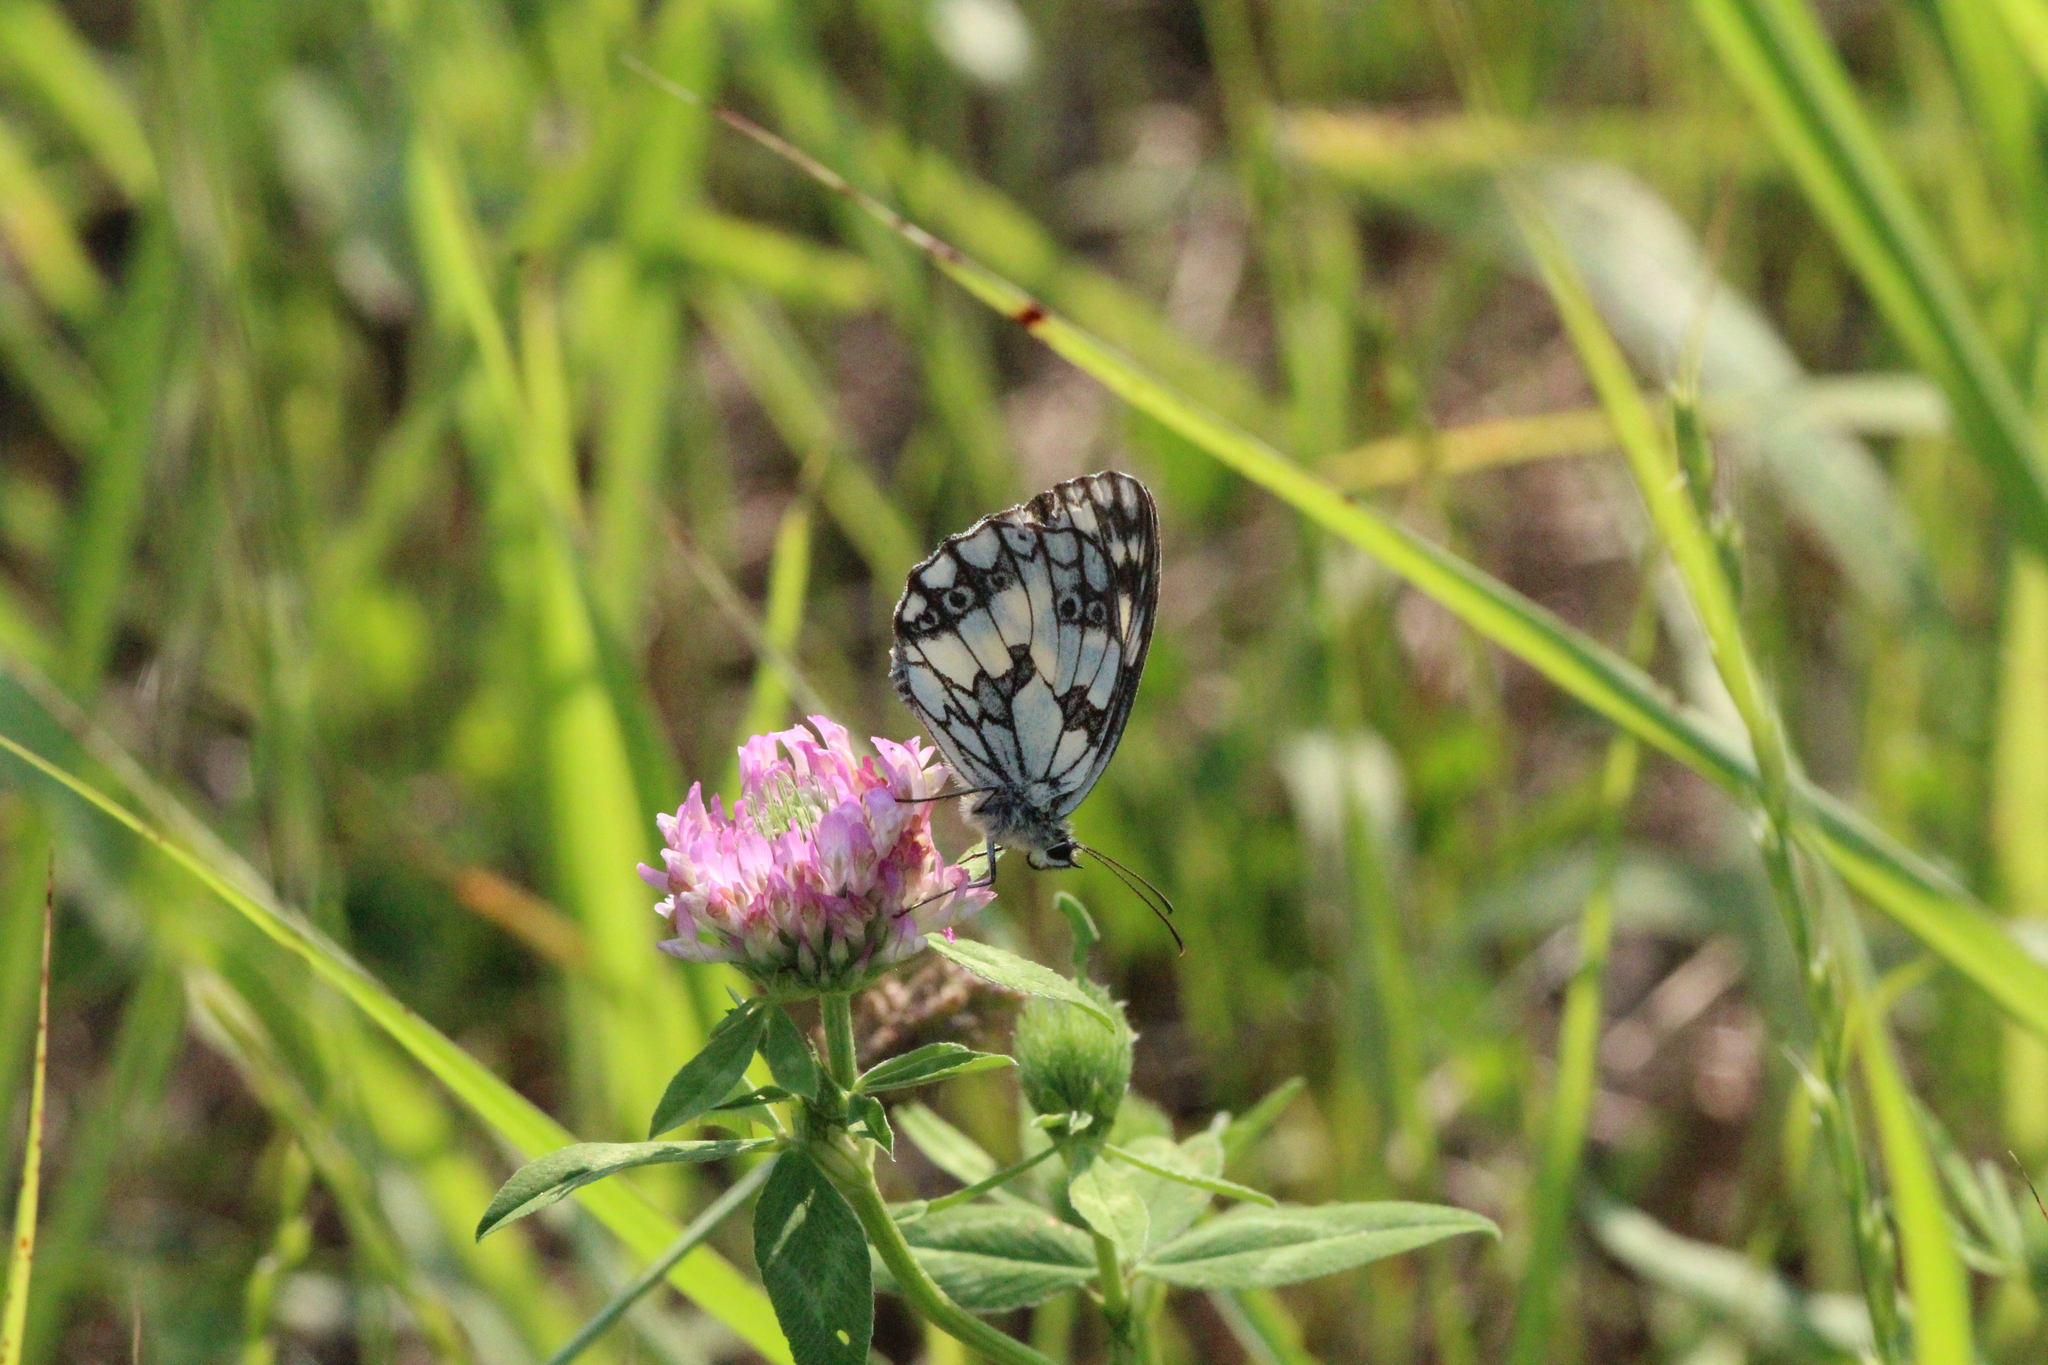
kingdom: Animalia
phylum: Arthropoda
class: Insecta
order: Lepidoptera
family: Nymphalidae
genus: Melanargia
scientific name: Melanargia galathea
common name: Marbled white
